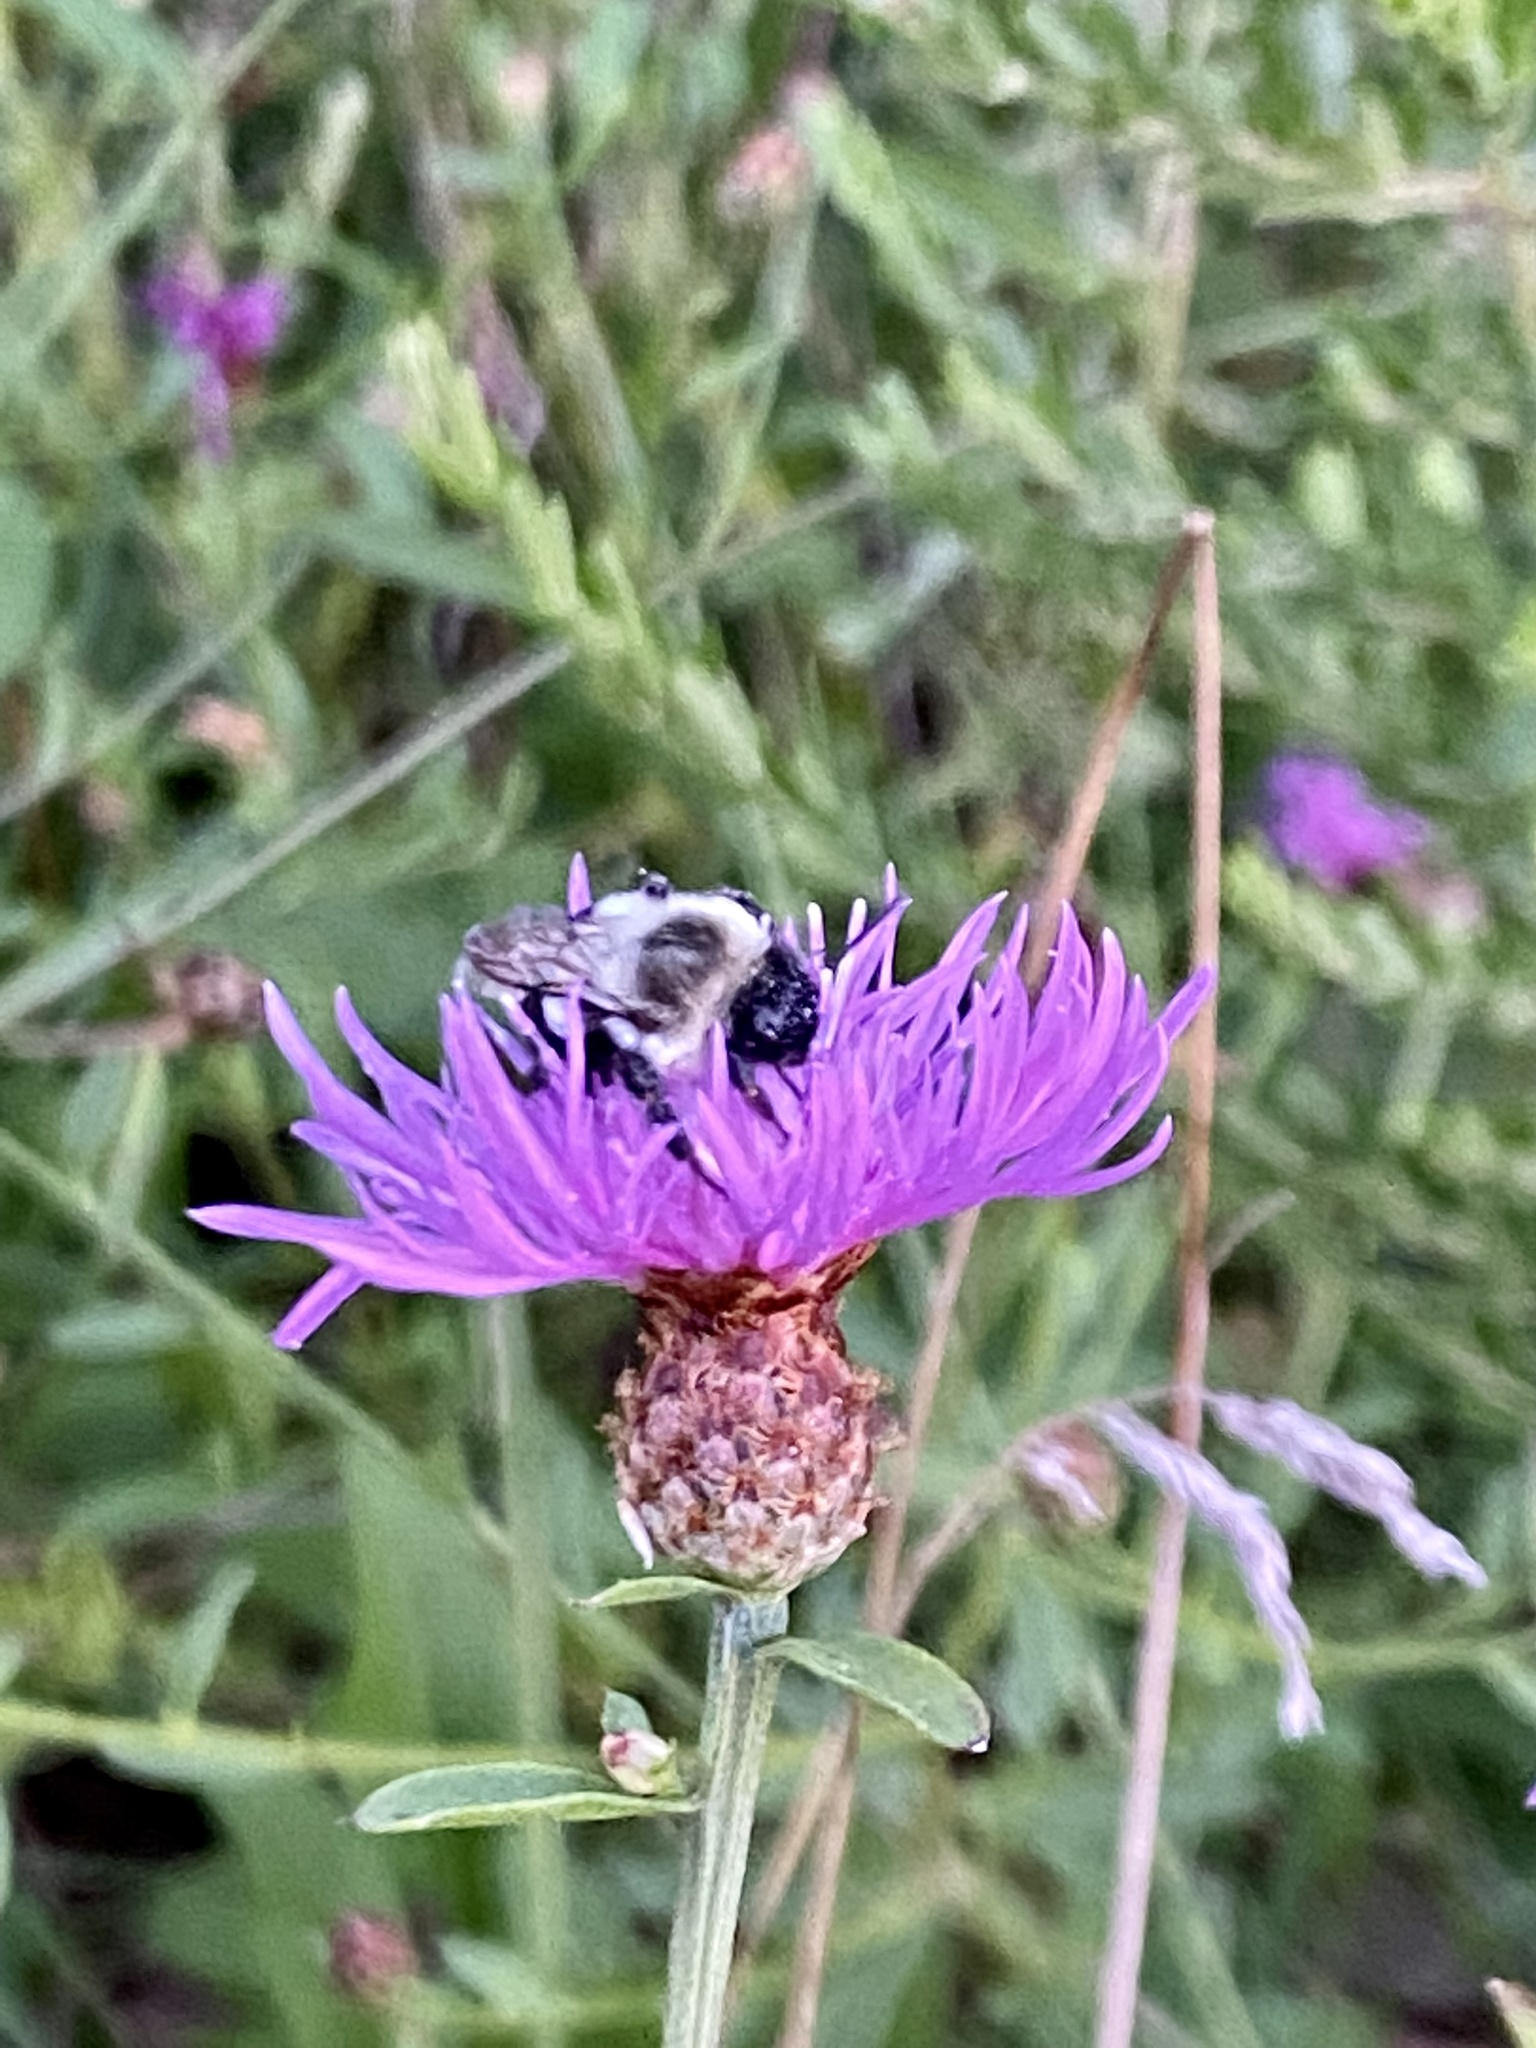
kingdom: Plantae
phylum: Tracheophyta
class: Magnoliopsida
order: Asterales
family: Asteraceae
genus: Centaurea
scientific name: Centaurea moncktonii
